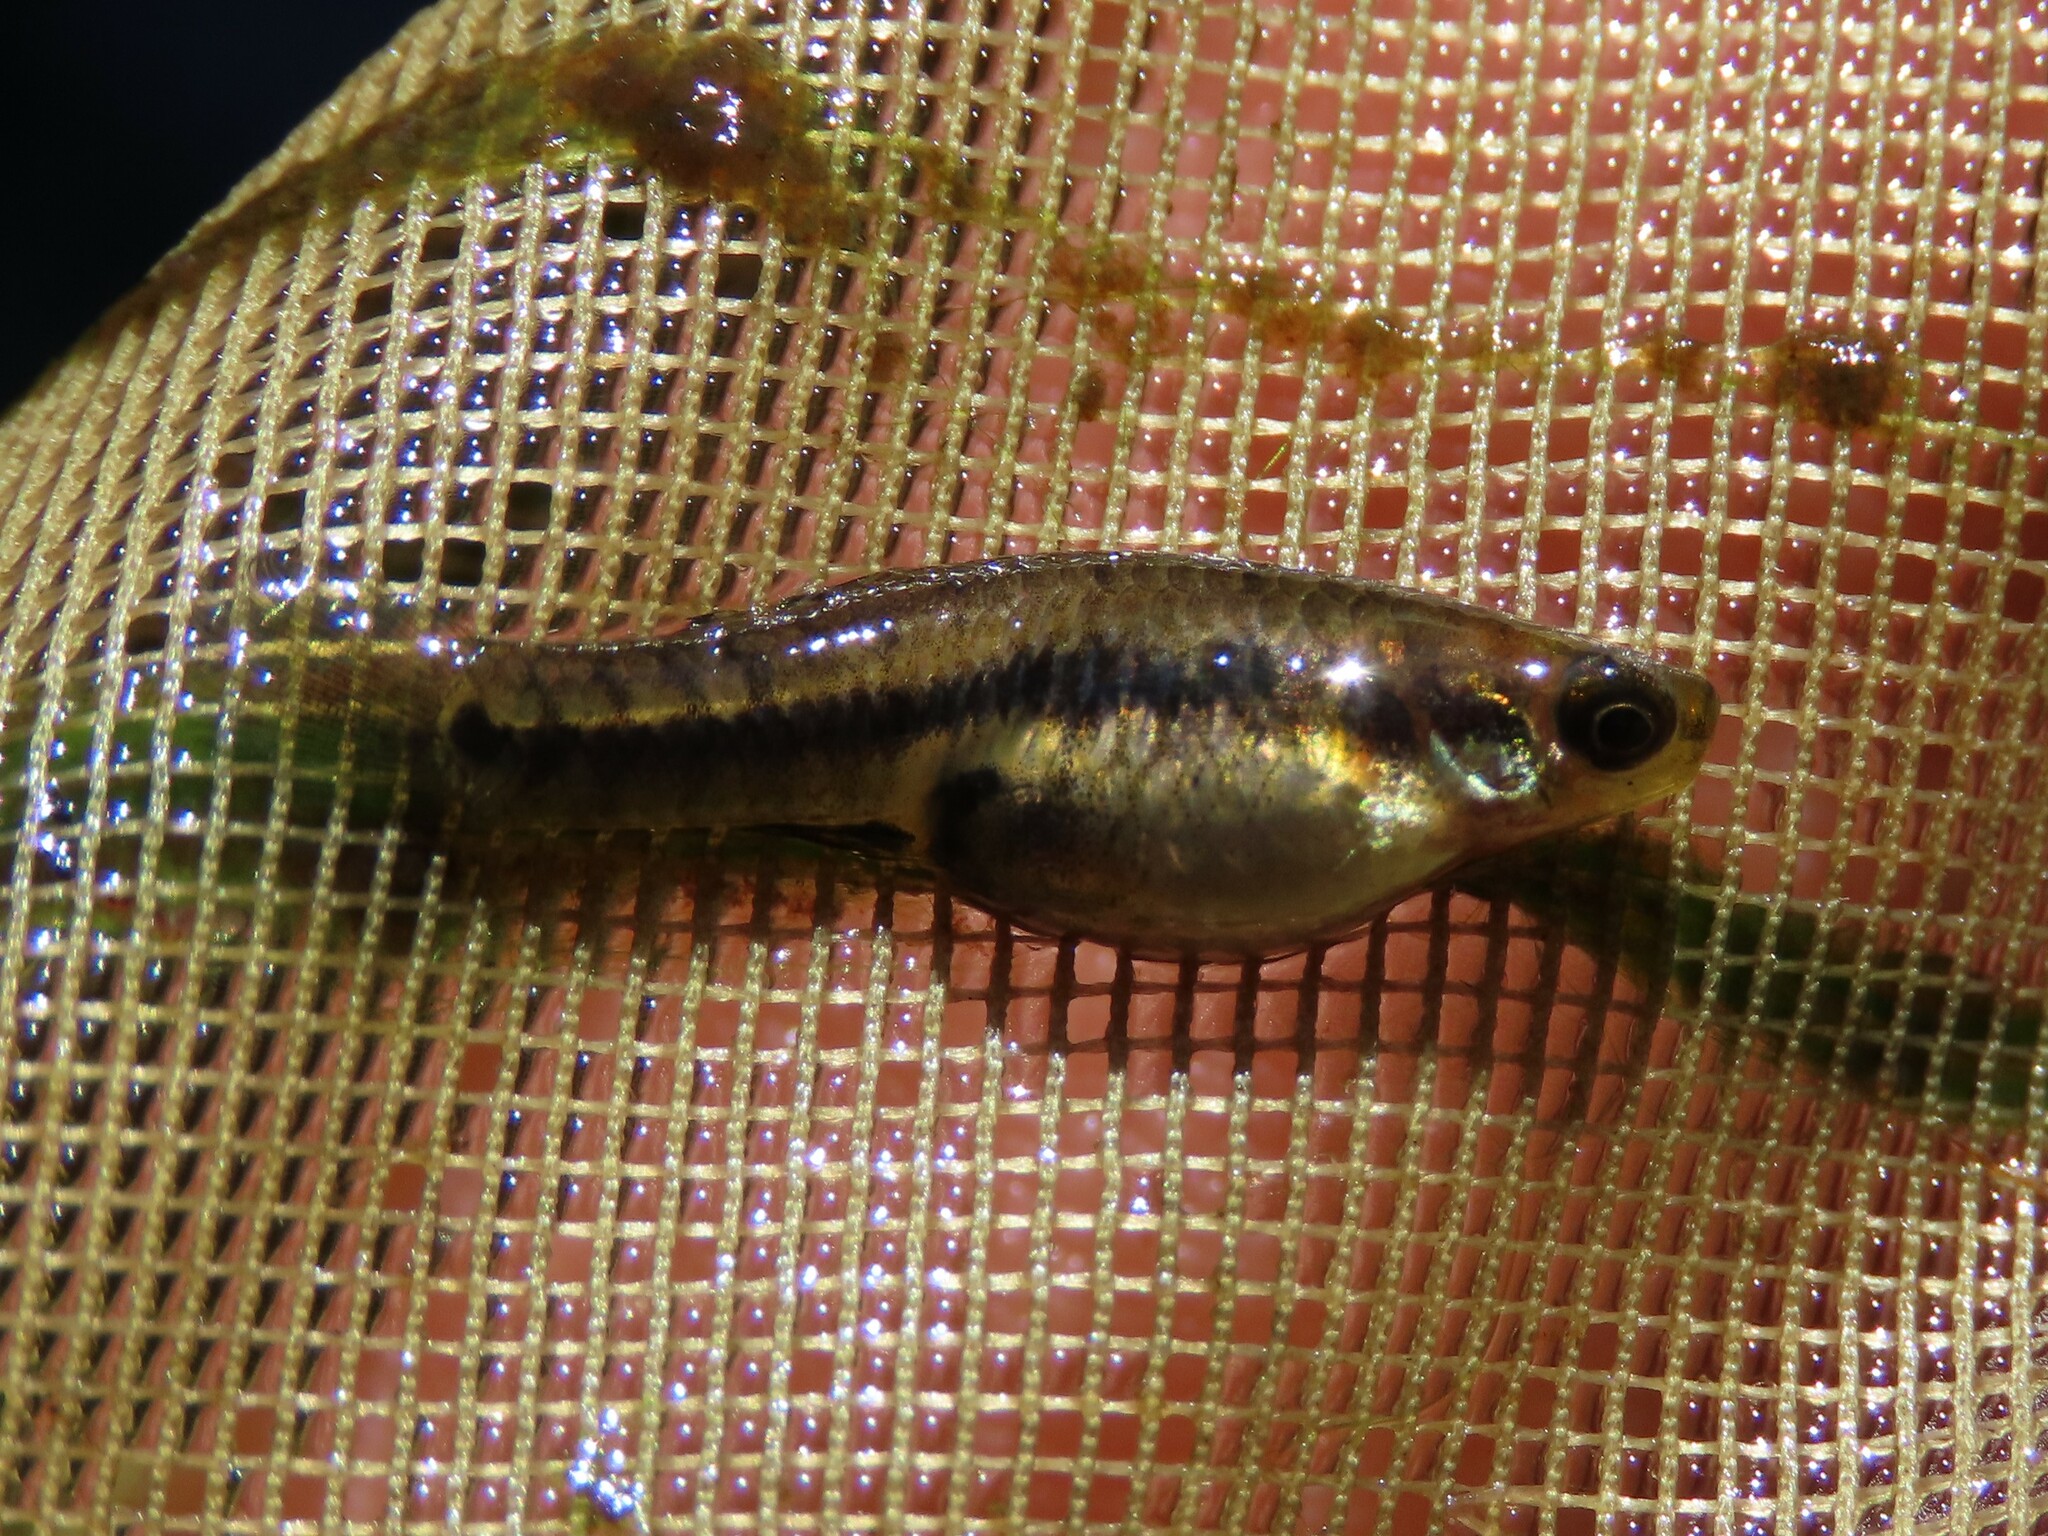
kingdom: Animalia
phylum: Chordata
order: Cyprinodontiformes
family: Poeciliidae
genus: Heterandria
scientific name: Heterandria formosa
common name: Least killifish
